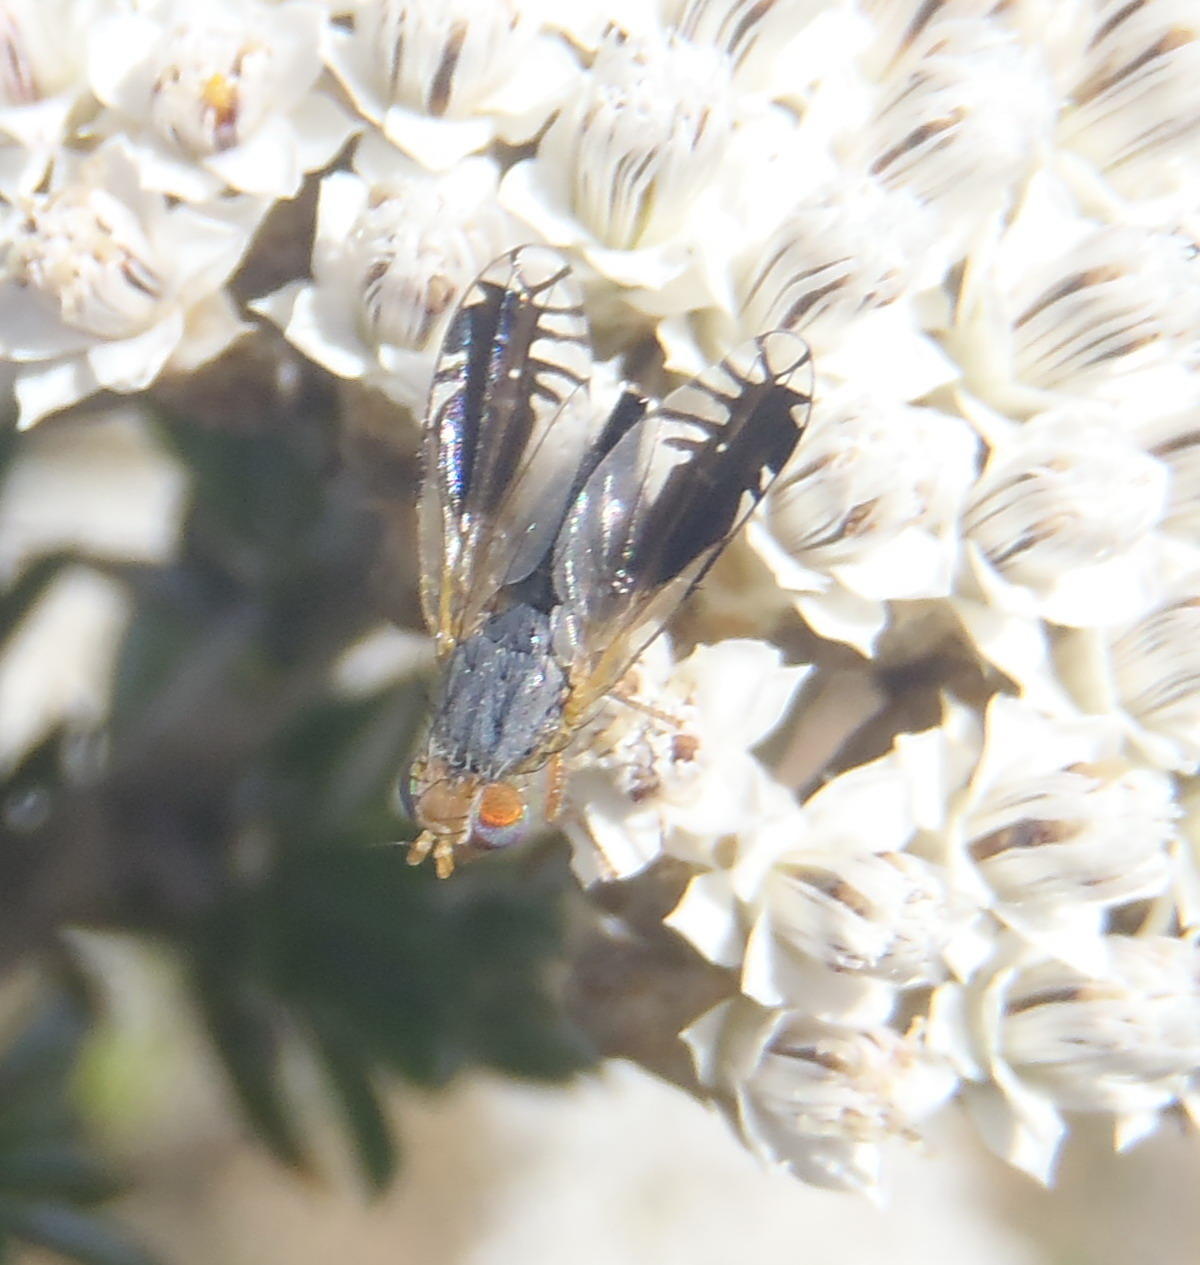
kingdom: Animalia
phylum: Arthropoda
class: Insecta
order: Diptera
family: Tephritidae
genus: Dectodesis
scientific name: Dectodesis euarestina
